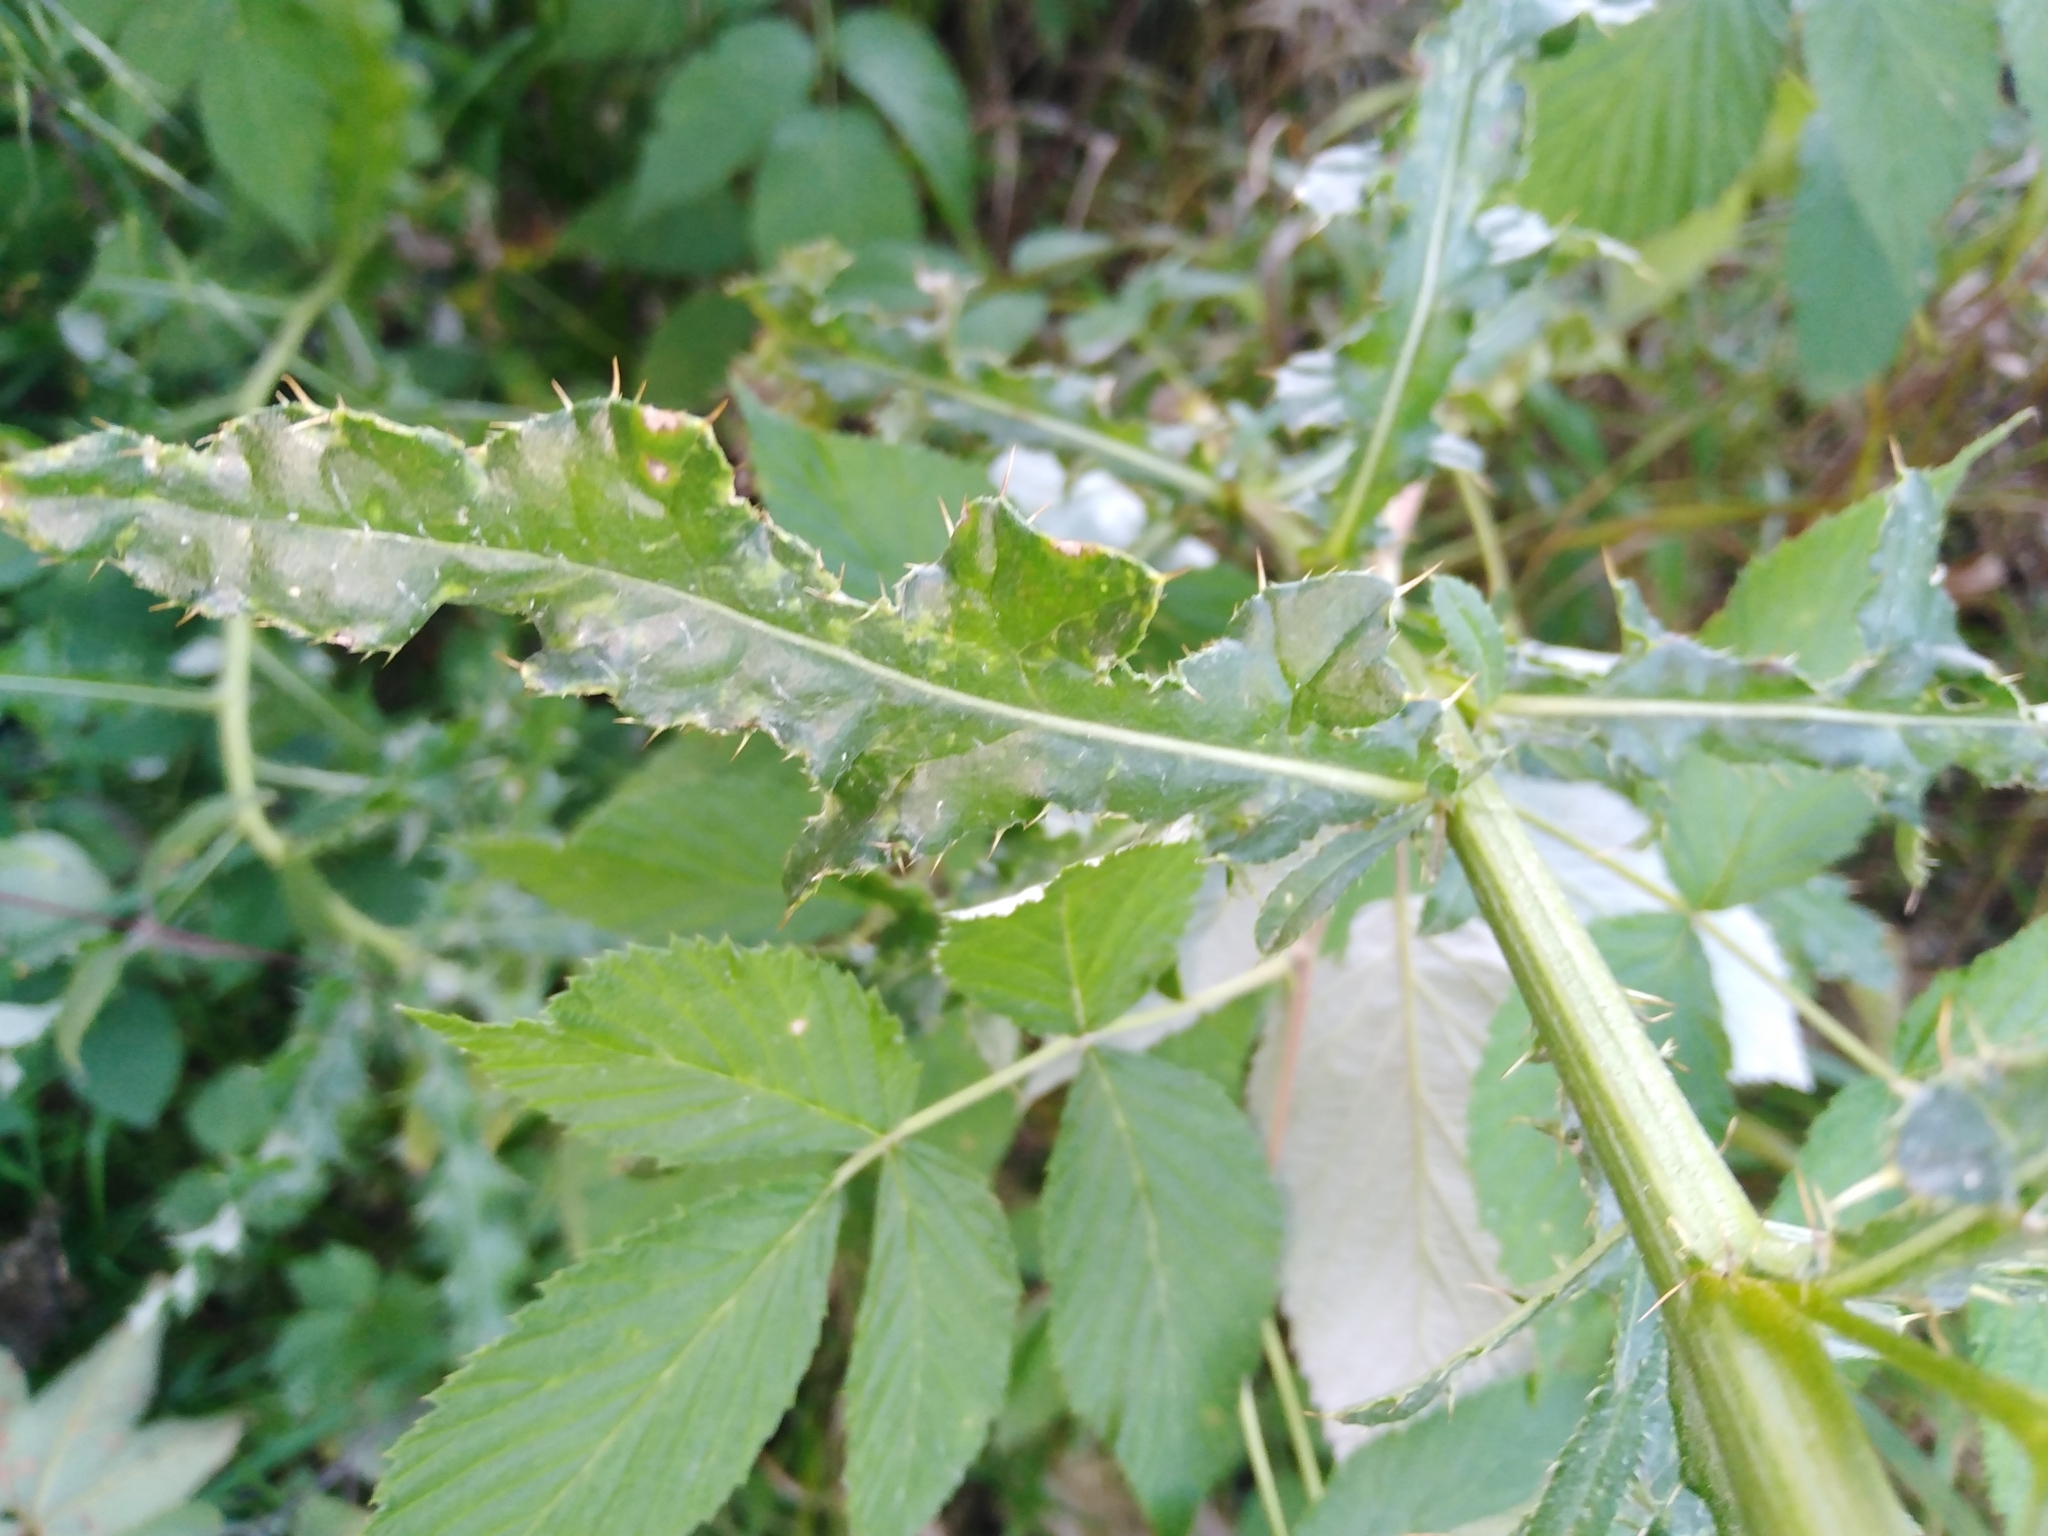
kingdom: Plantae
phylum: Tracheophyta
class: Magnoliopsida
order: Asterales
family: Asteraceae
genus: Cirsium
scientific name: Cirsium arvense
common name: Creeping thistle
